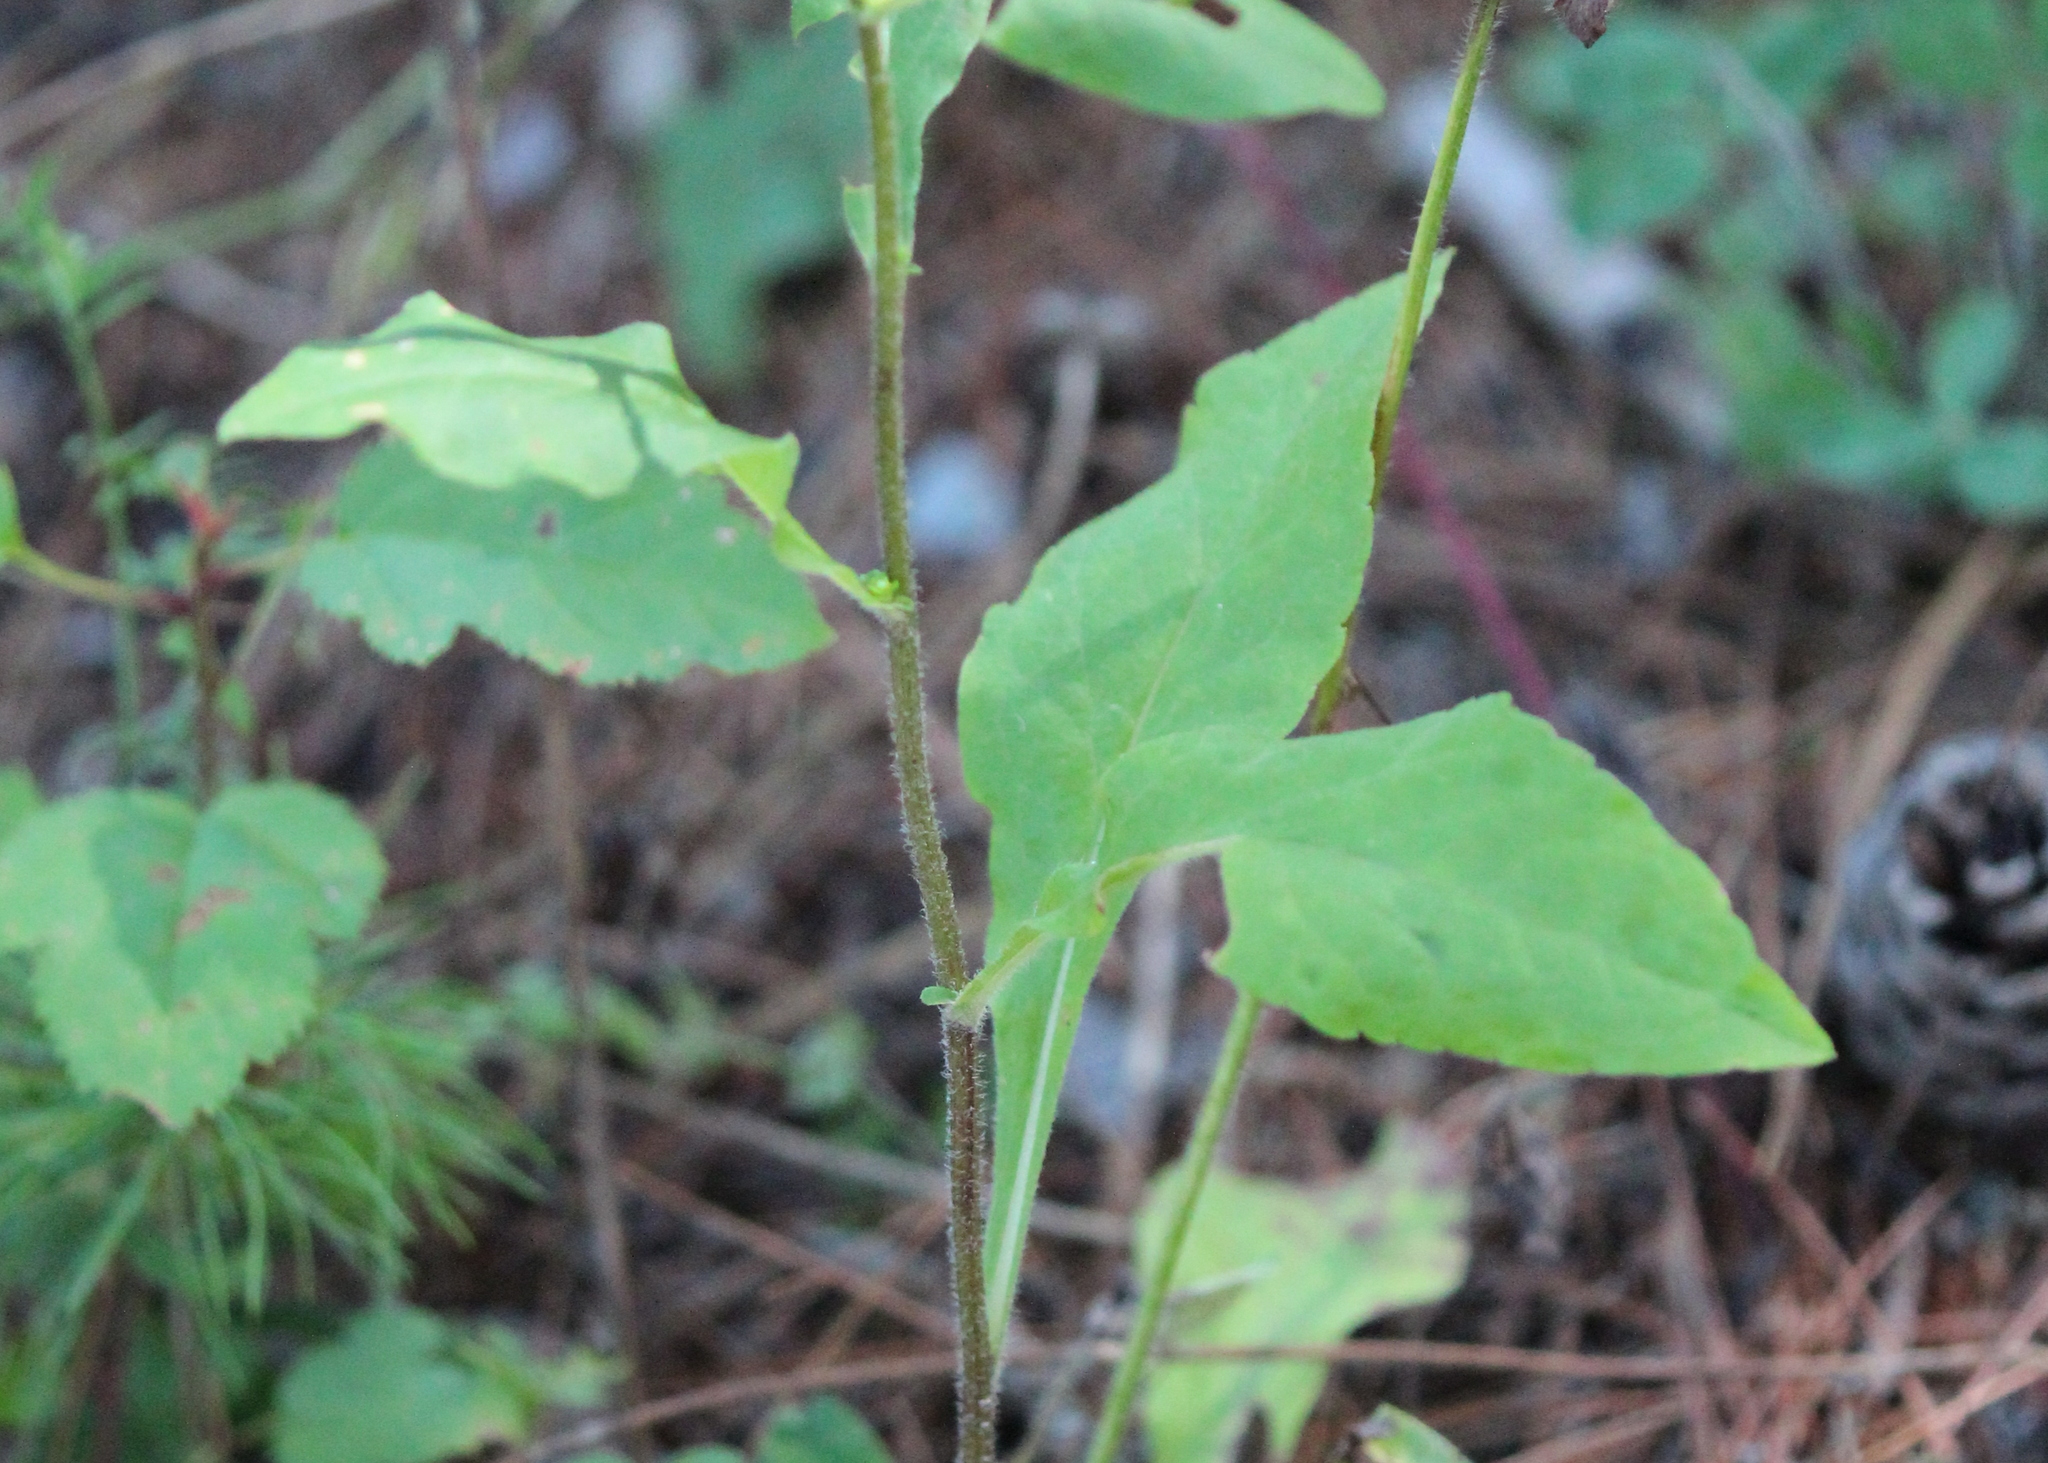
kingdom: Plantae
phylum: Tracheophyta
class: Magnoliopsida
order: Asterales
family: Asteraceae
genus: Solidago
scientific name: Solidago bicolor
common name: Silverrod
